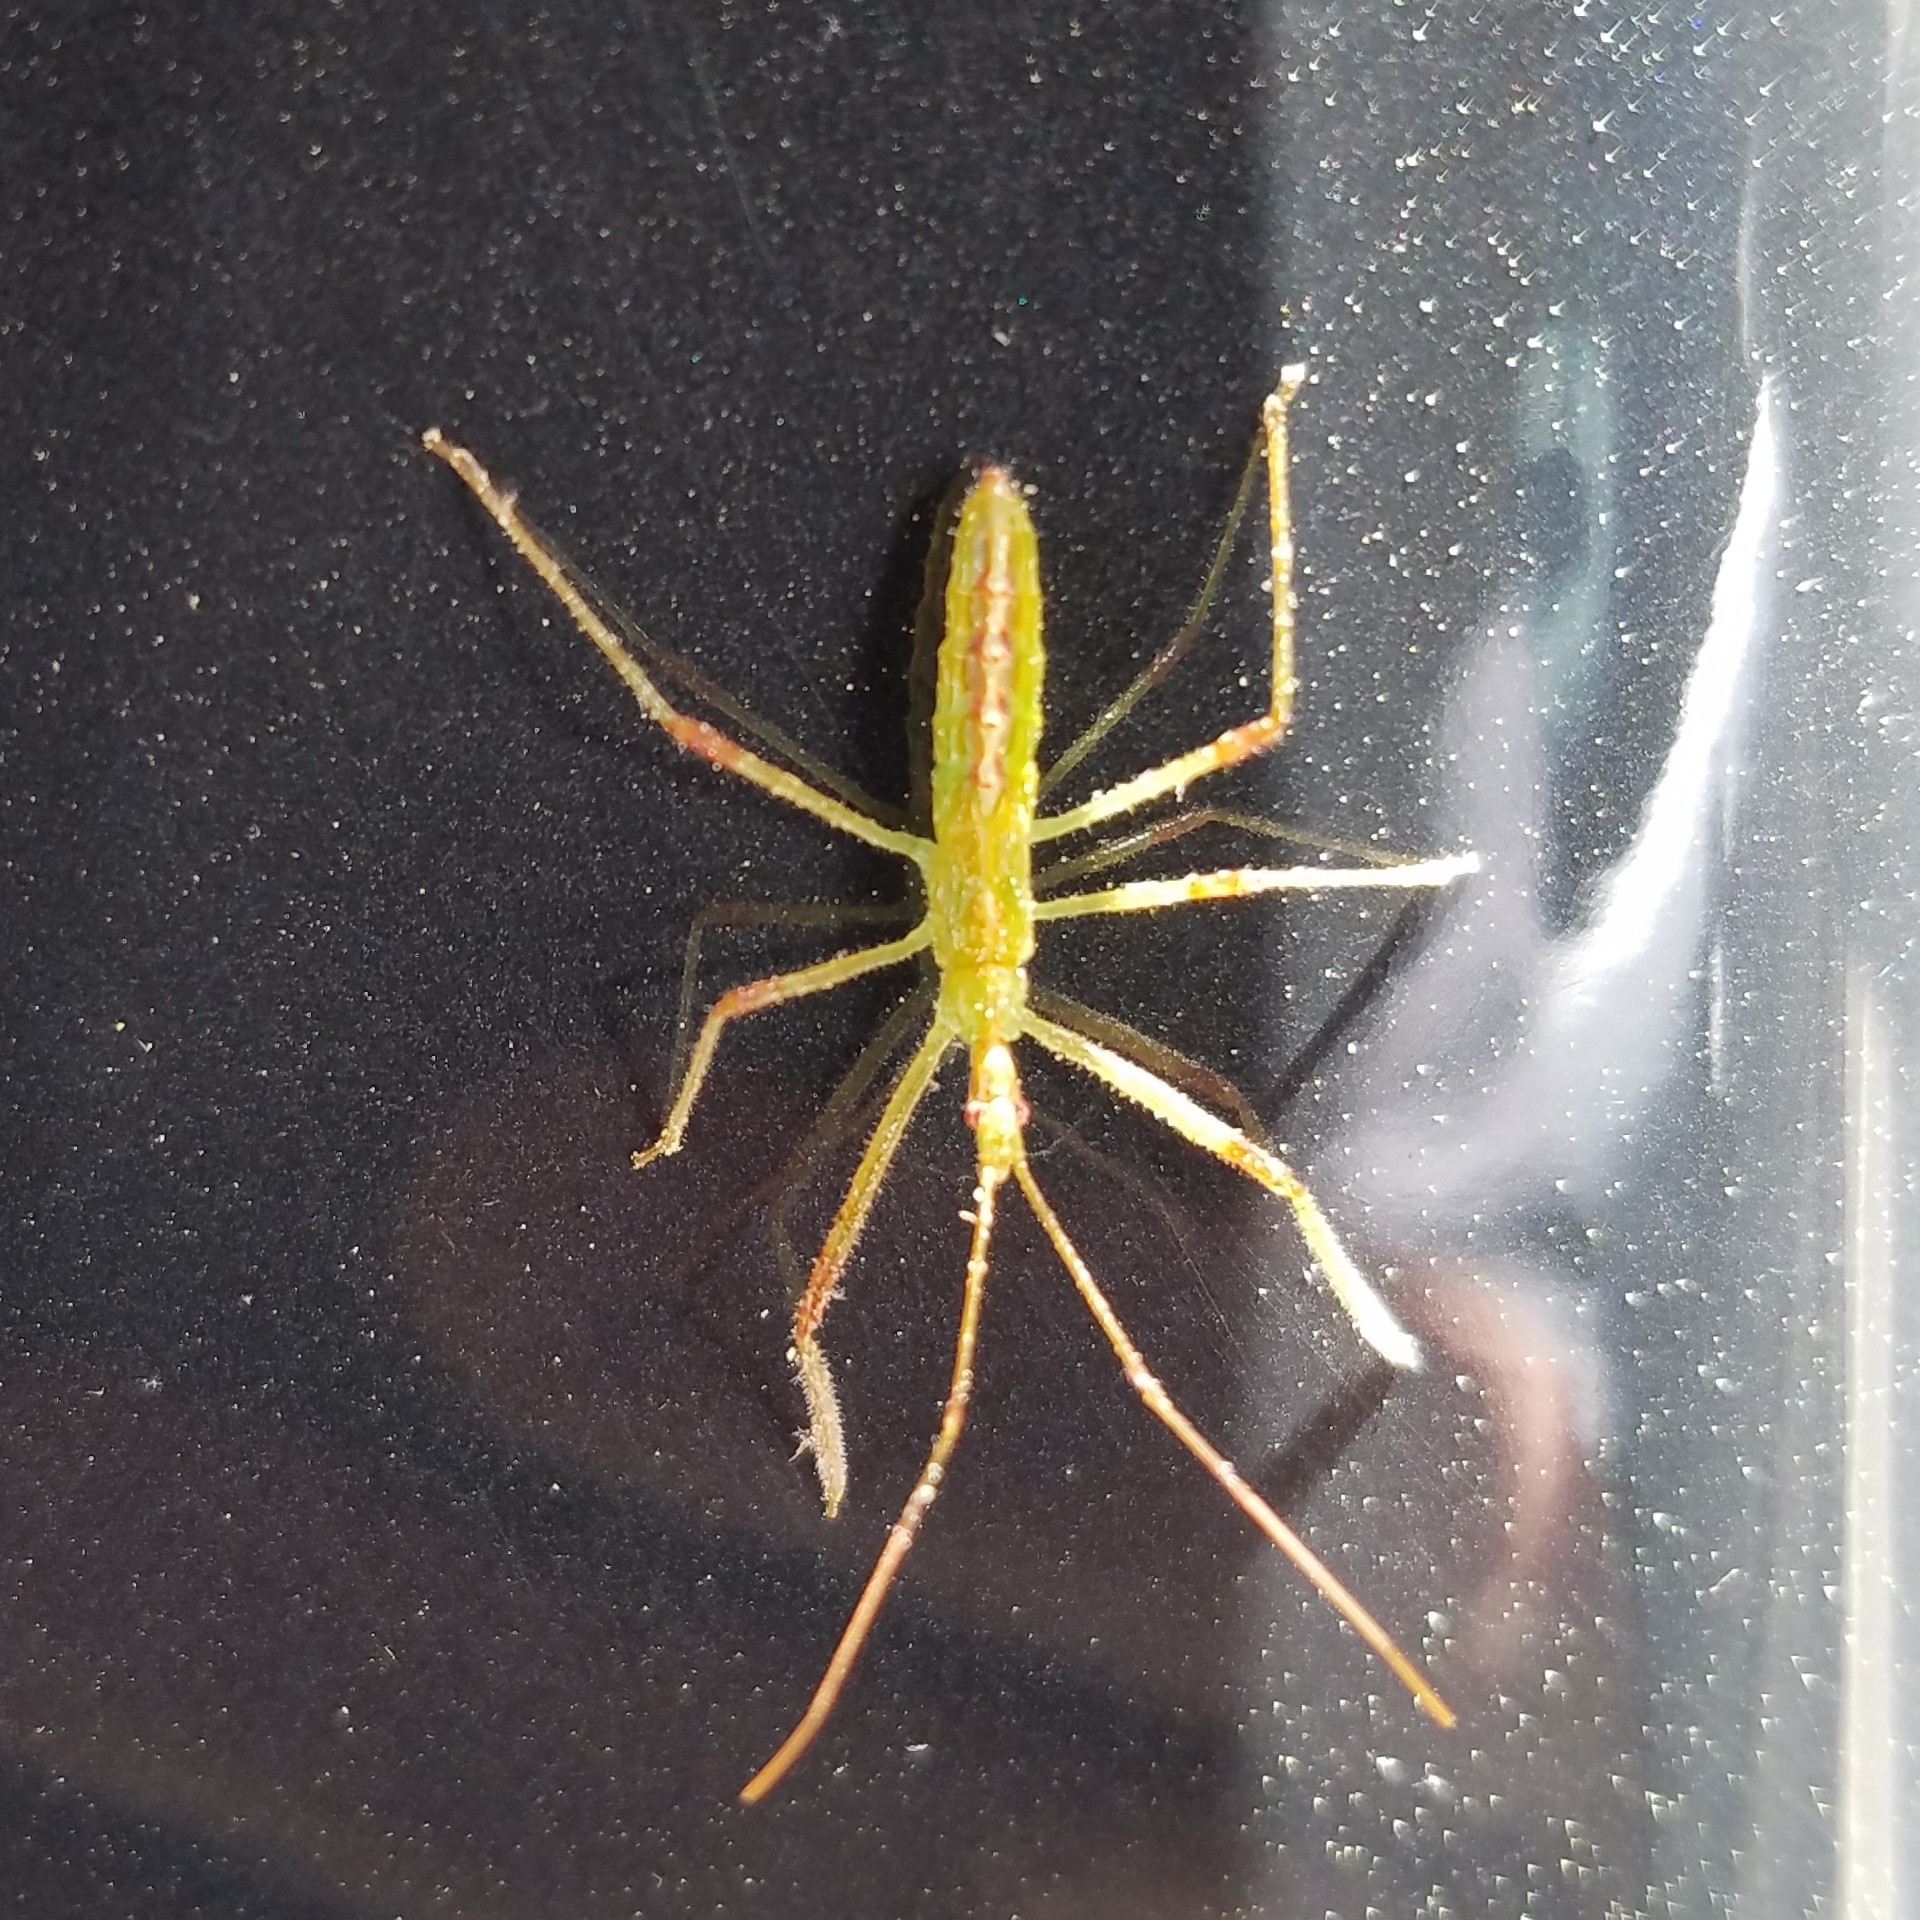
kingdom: Animalia
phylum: Arthropoda
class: Insecta
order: Hemiptera
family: Reduviidae
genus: Zelus
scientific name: Zelus luridus
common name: Pale green assassin bug
